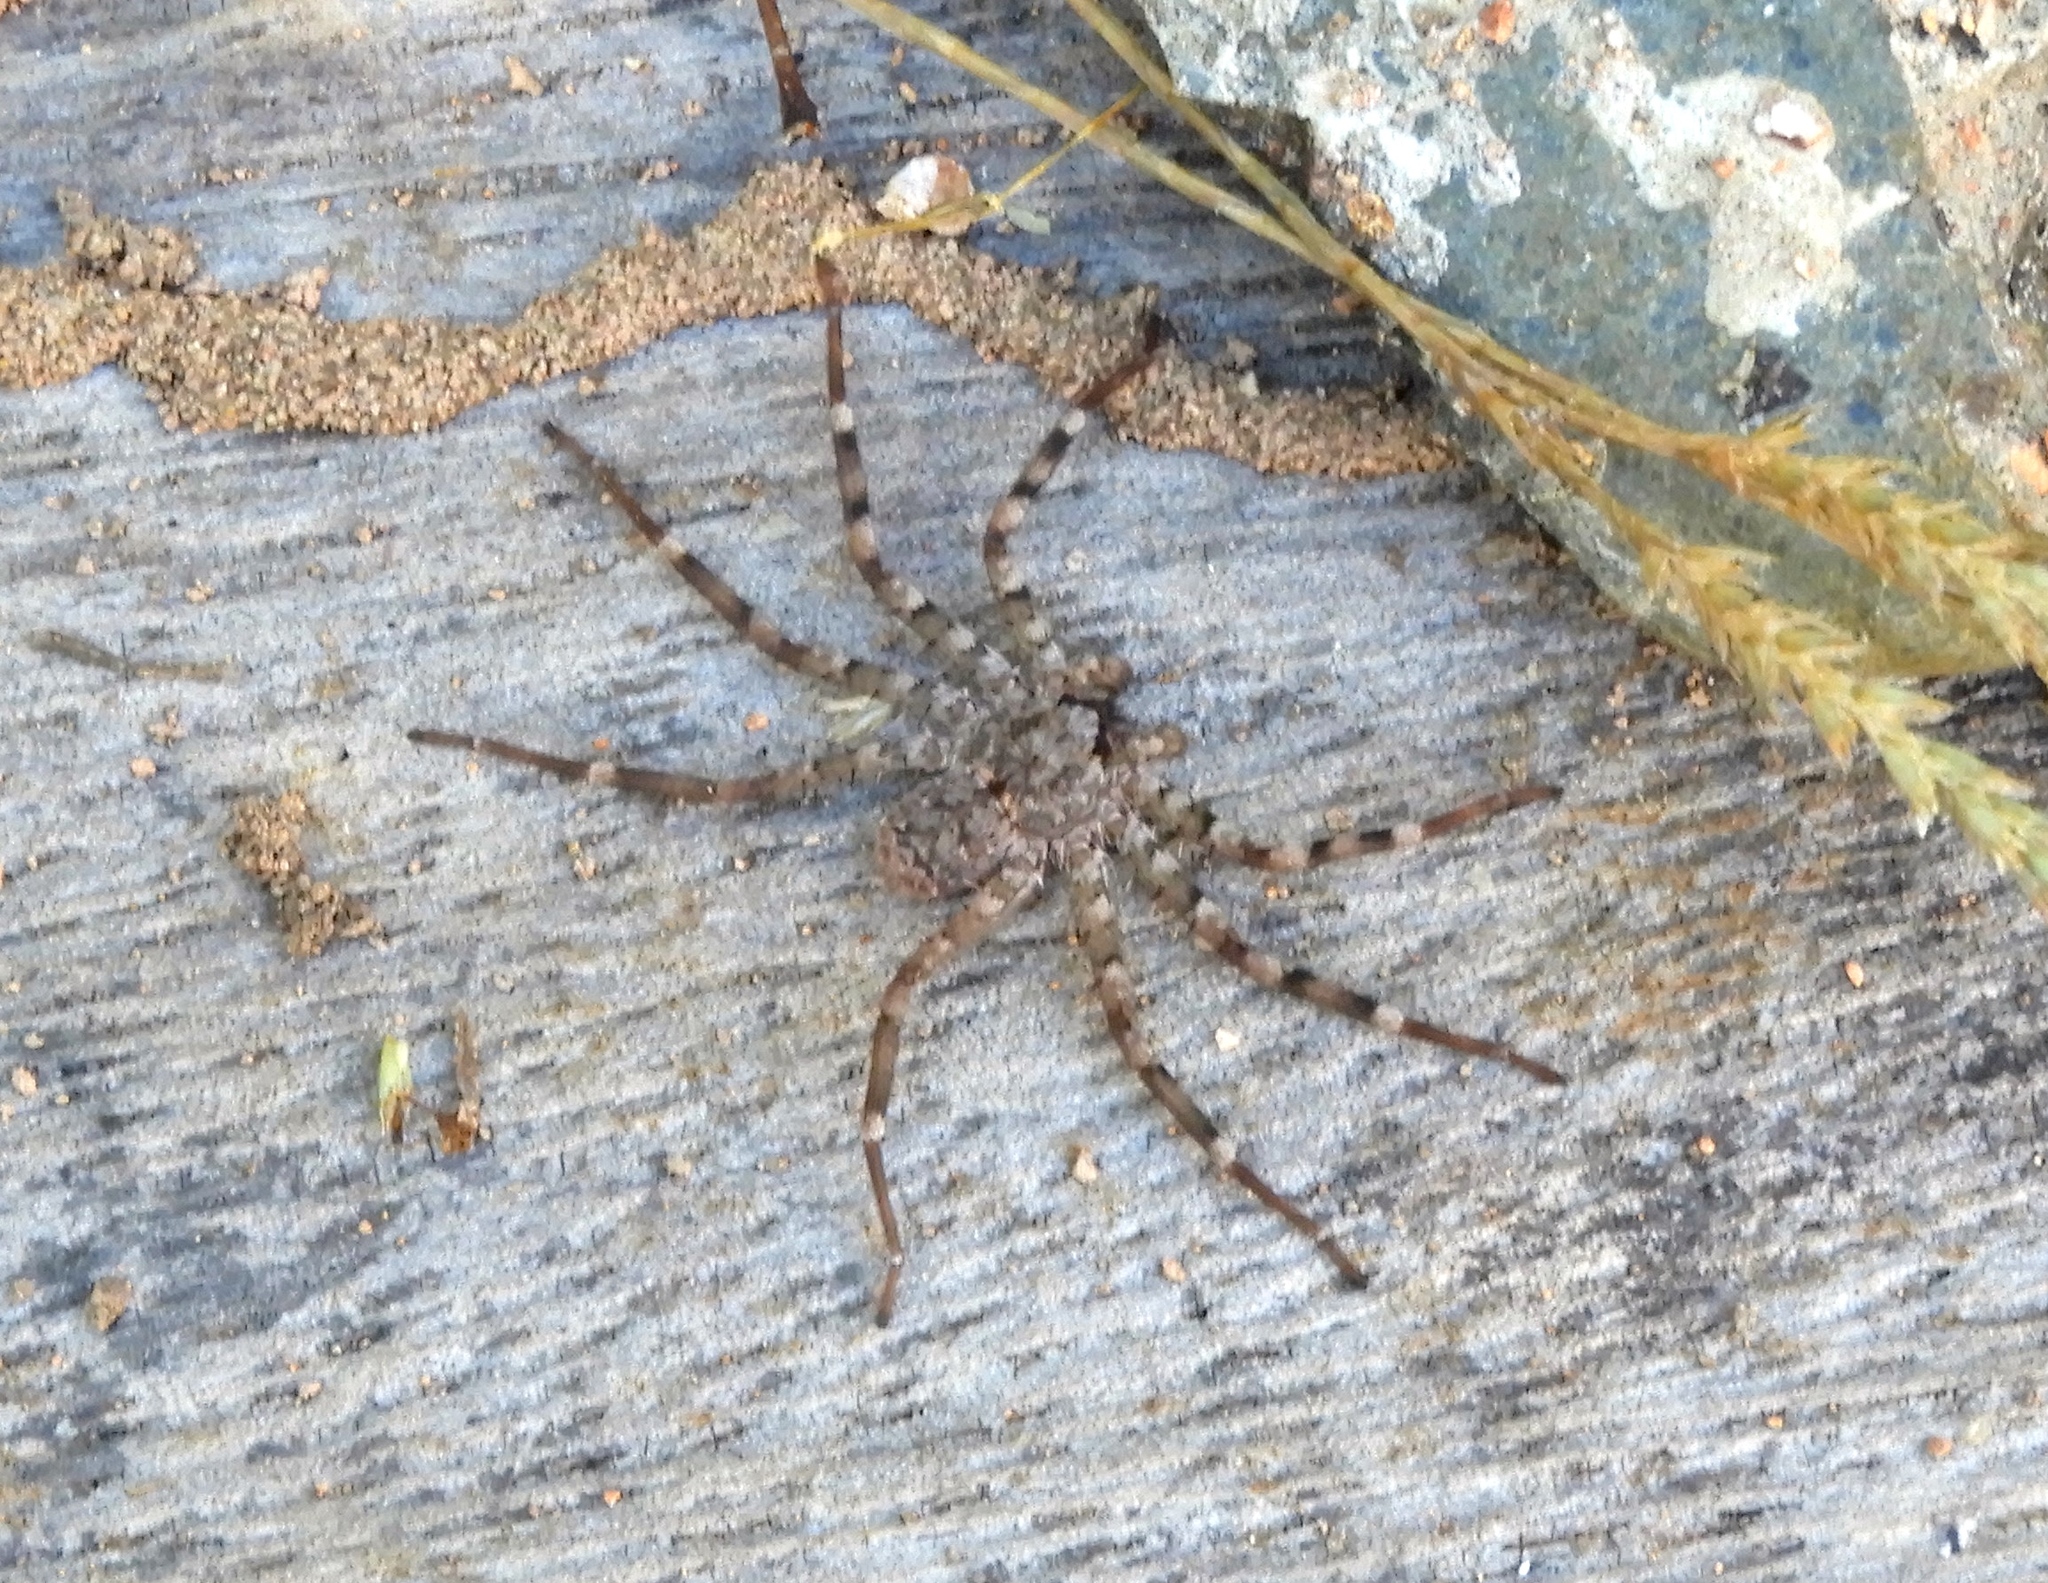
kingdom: Animalia
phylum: Arthropoda
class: Arachnida
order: Araneae
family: Selenopidae
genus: Selenops
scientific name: Selenops
